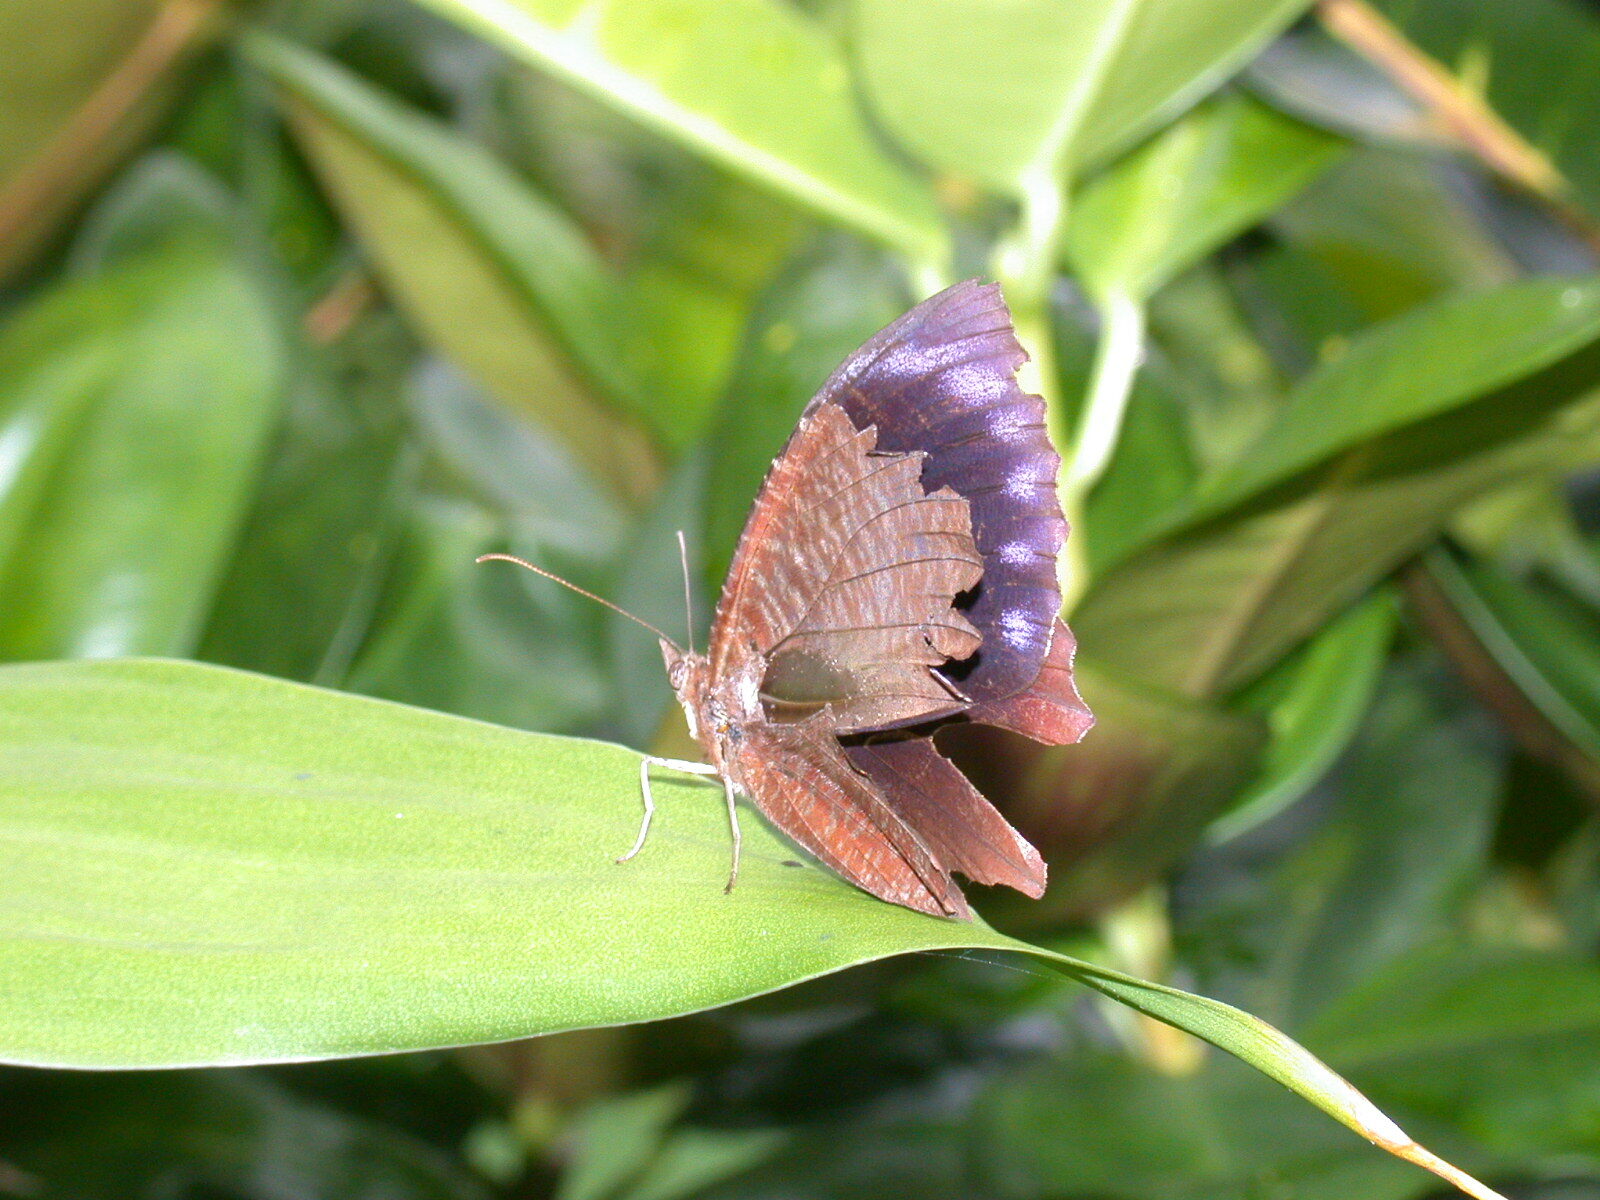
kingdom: Animalia
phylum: Arthropoda
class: Insecta
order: Lepidoptera
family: Nymphalidae
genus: Elymnias
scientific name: Elymnias hypermnestra
